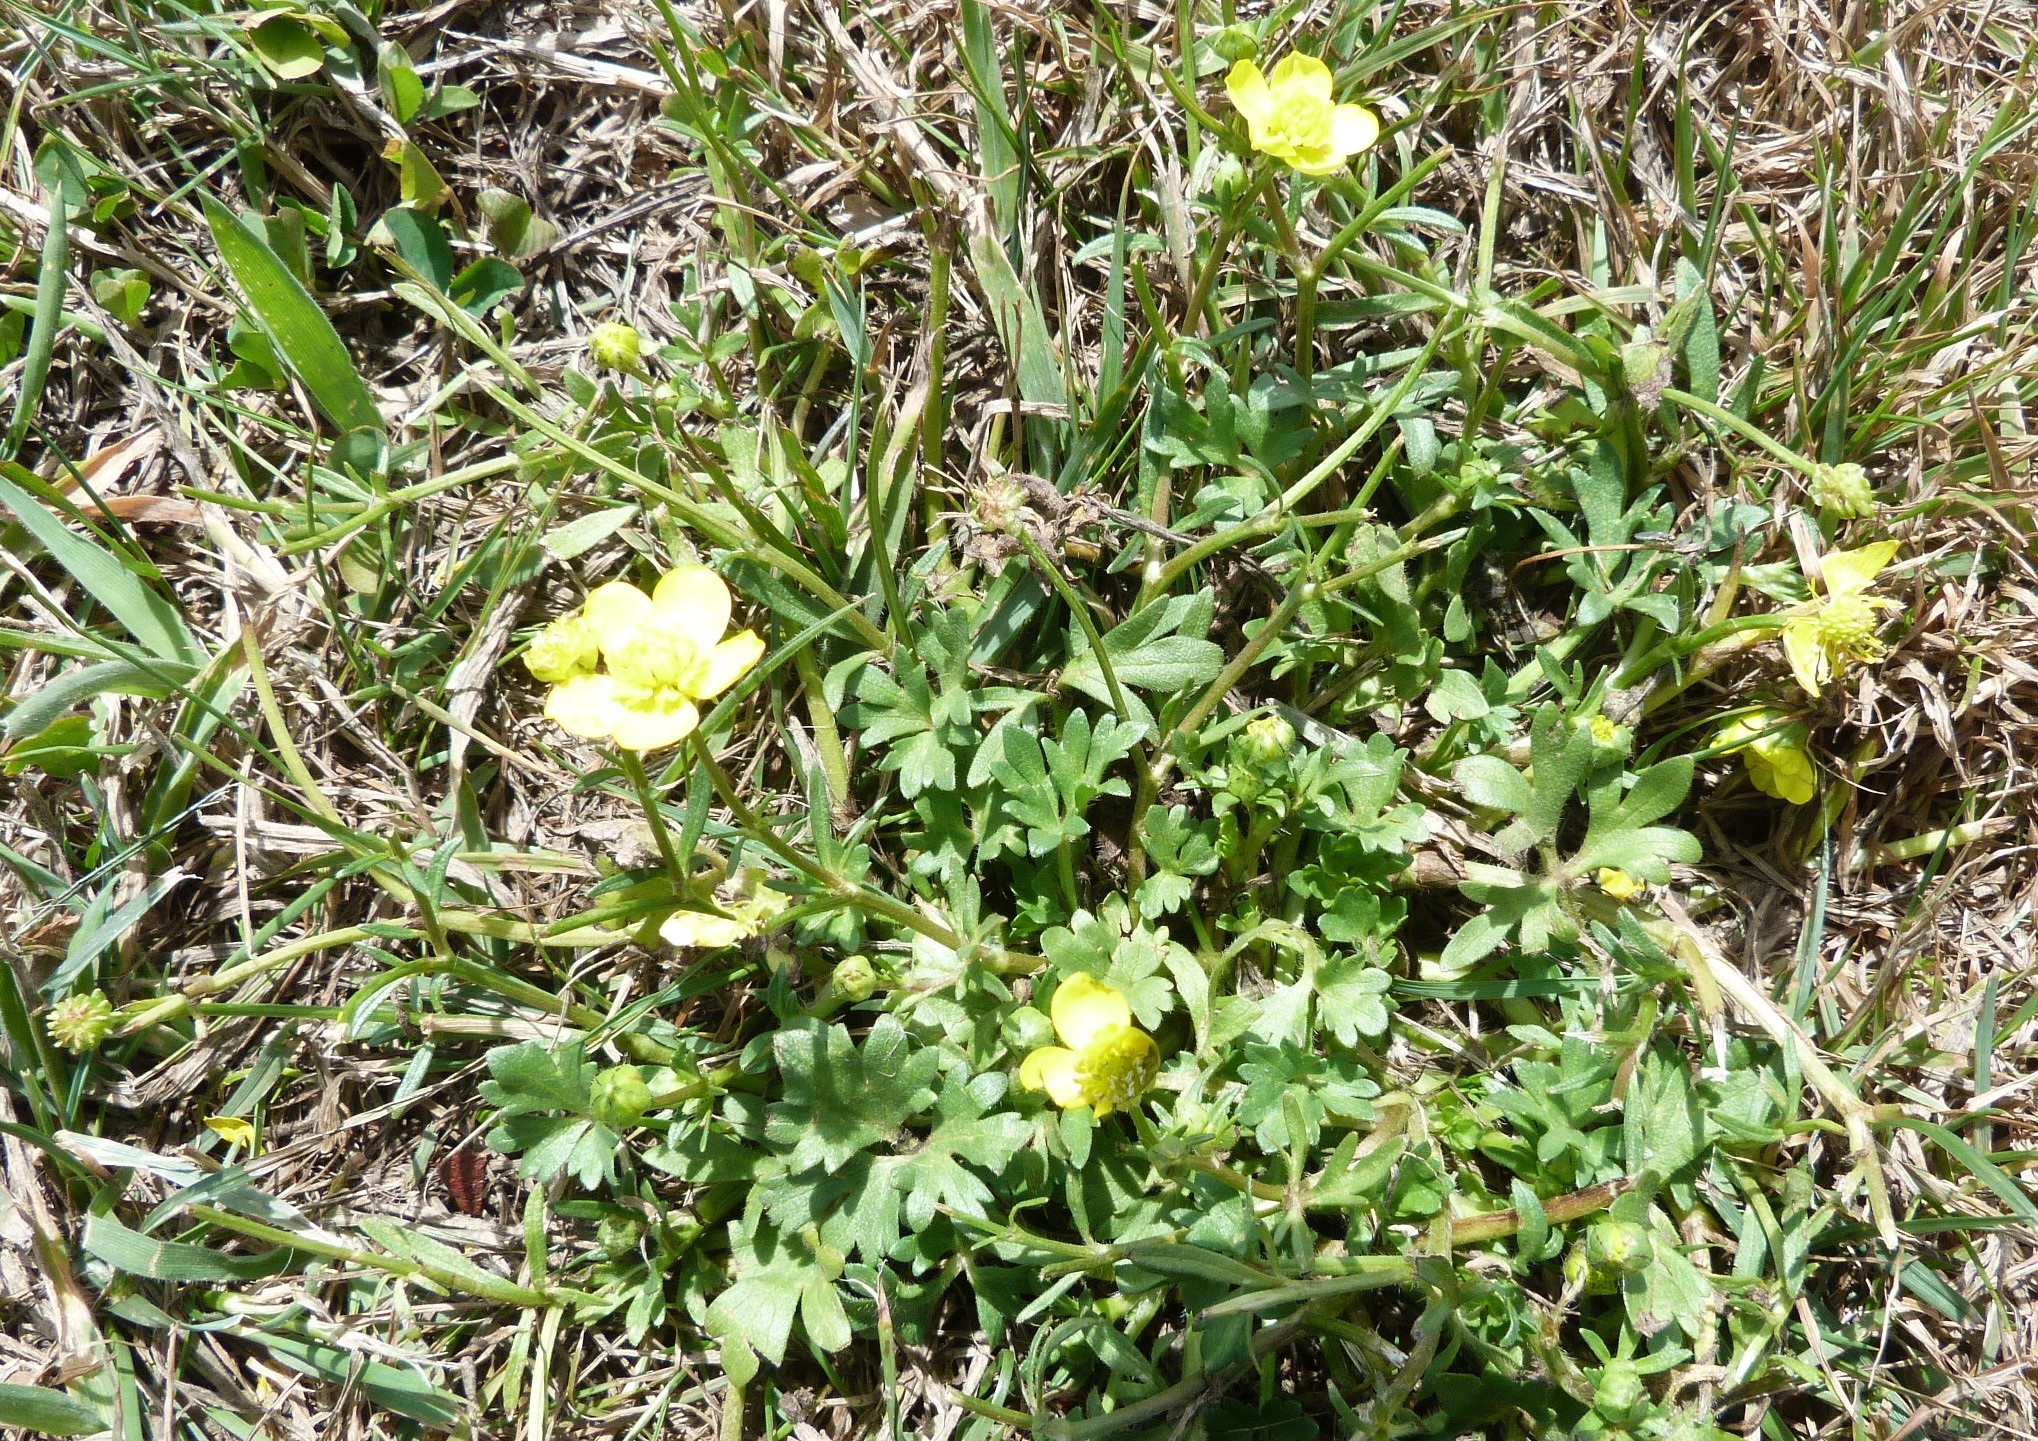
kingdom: Plantae
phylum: Tracheophyta
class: Magnoliopsida
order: Ranunculales
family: Ranunculaceae
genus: Ranunculus
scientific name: Ranunculus sardous
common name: Hairy buttercup
